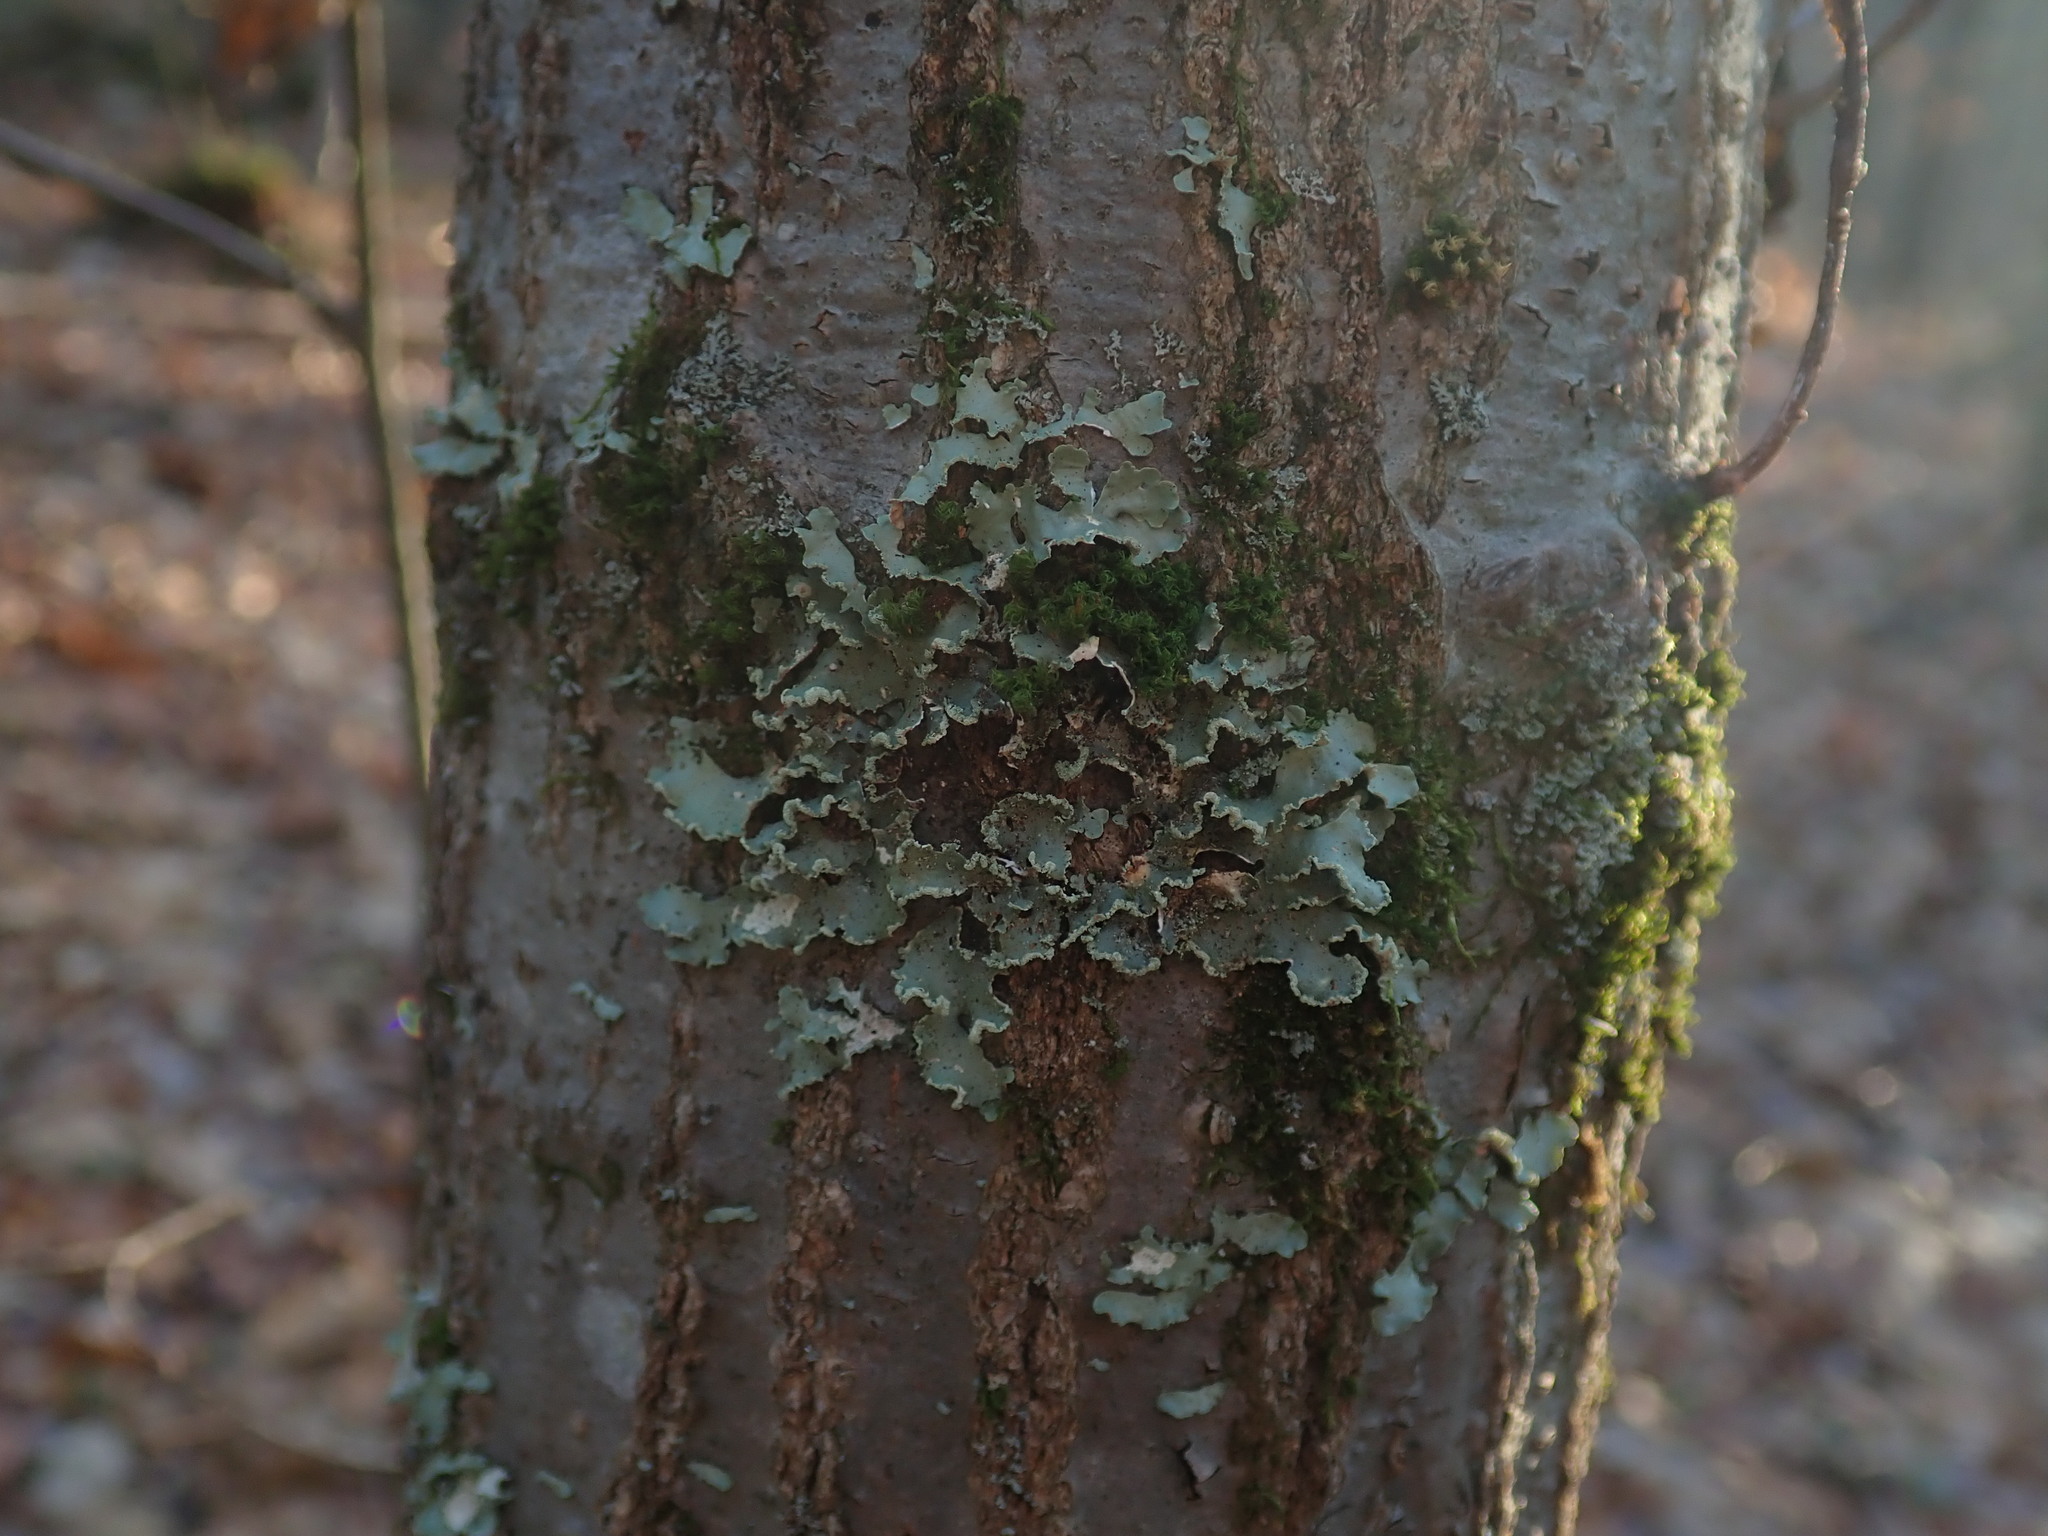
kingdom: Fungi
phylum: Ascomycota
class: Lecanoromycetes
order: Lecanorales
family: Parmeliaceae
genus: Usnocetraria
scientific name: Usnocetraria oakesiana
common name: Yellow ribbon lichen
